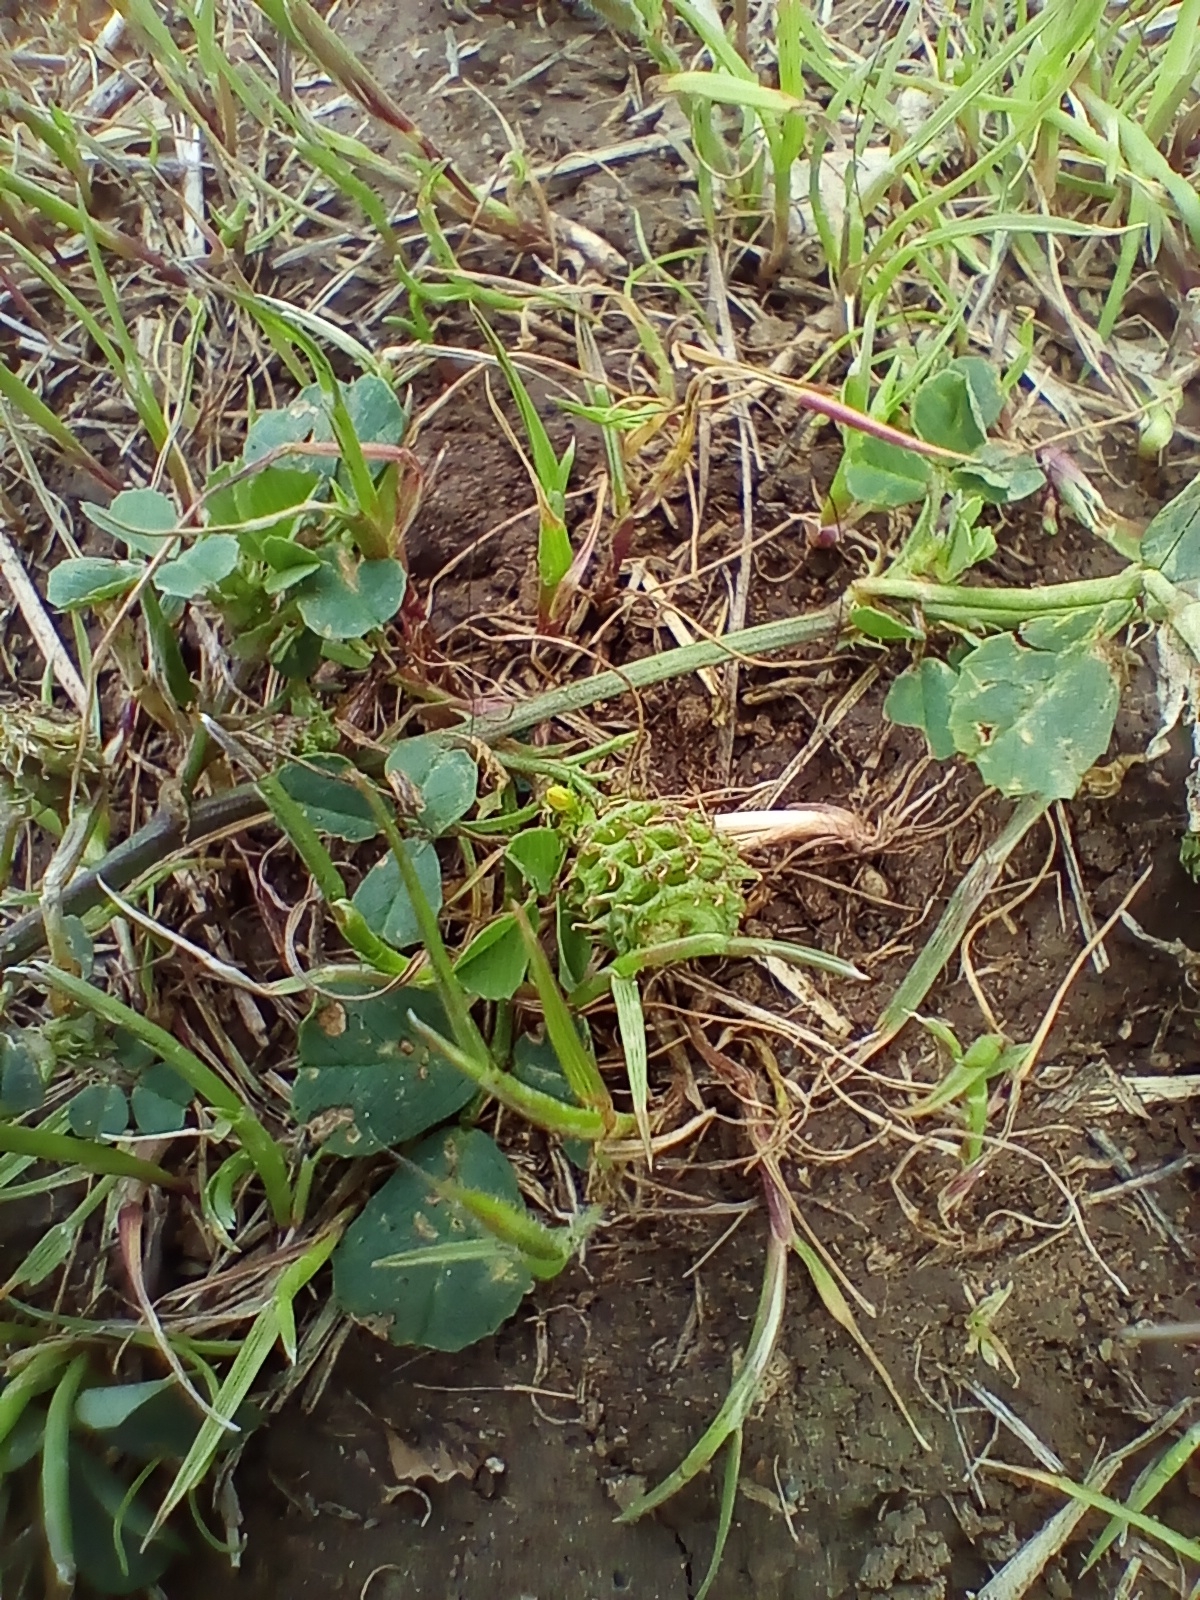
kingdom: Plantae
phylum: Tracheophyta
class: Magnoliopsida
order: Fabales
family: Fabaceae
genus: Medicago
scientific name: Medicago polymorpha
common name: Burclover
